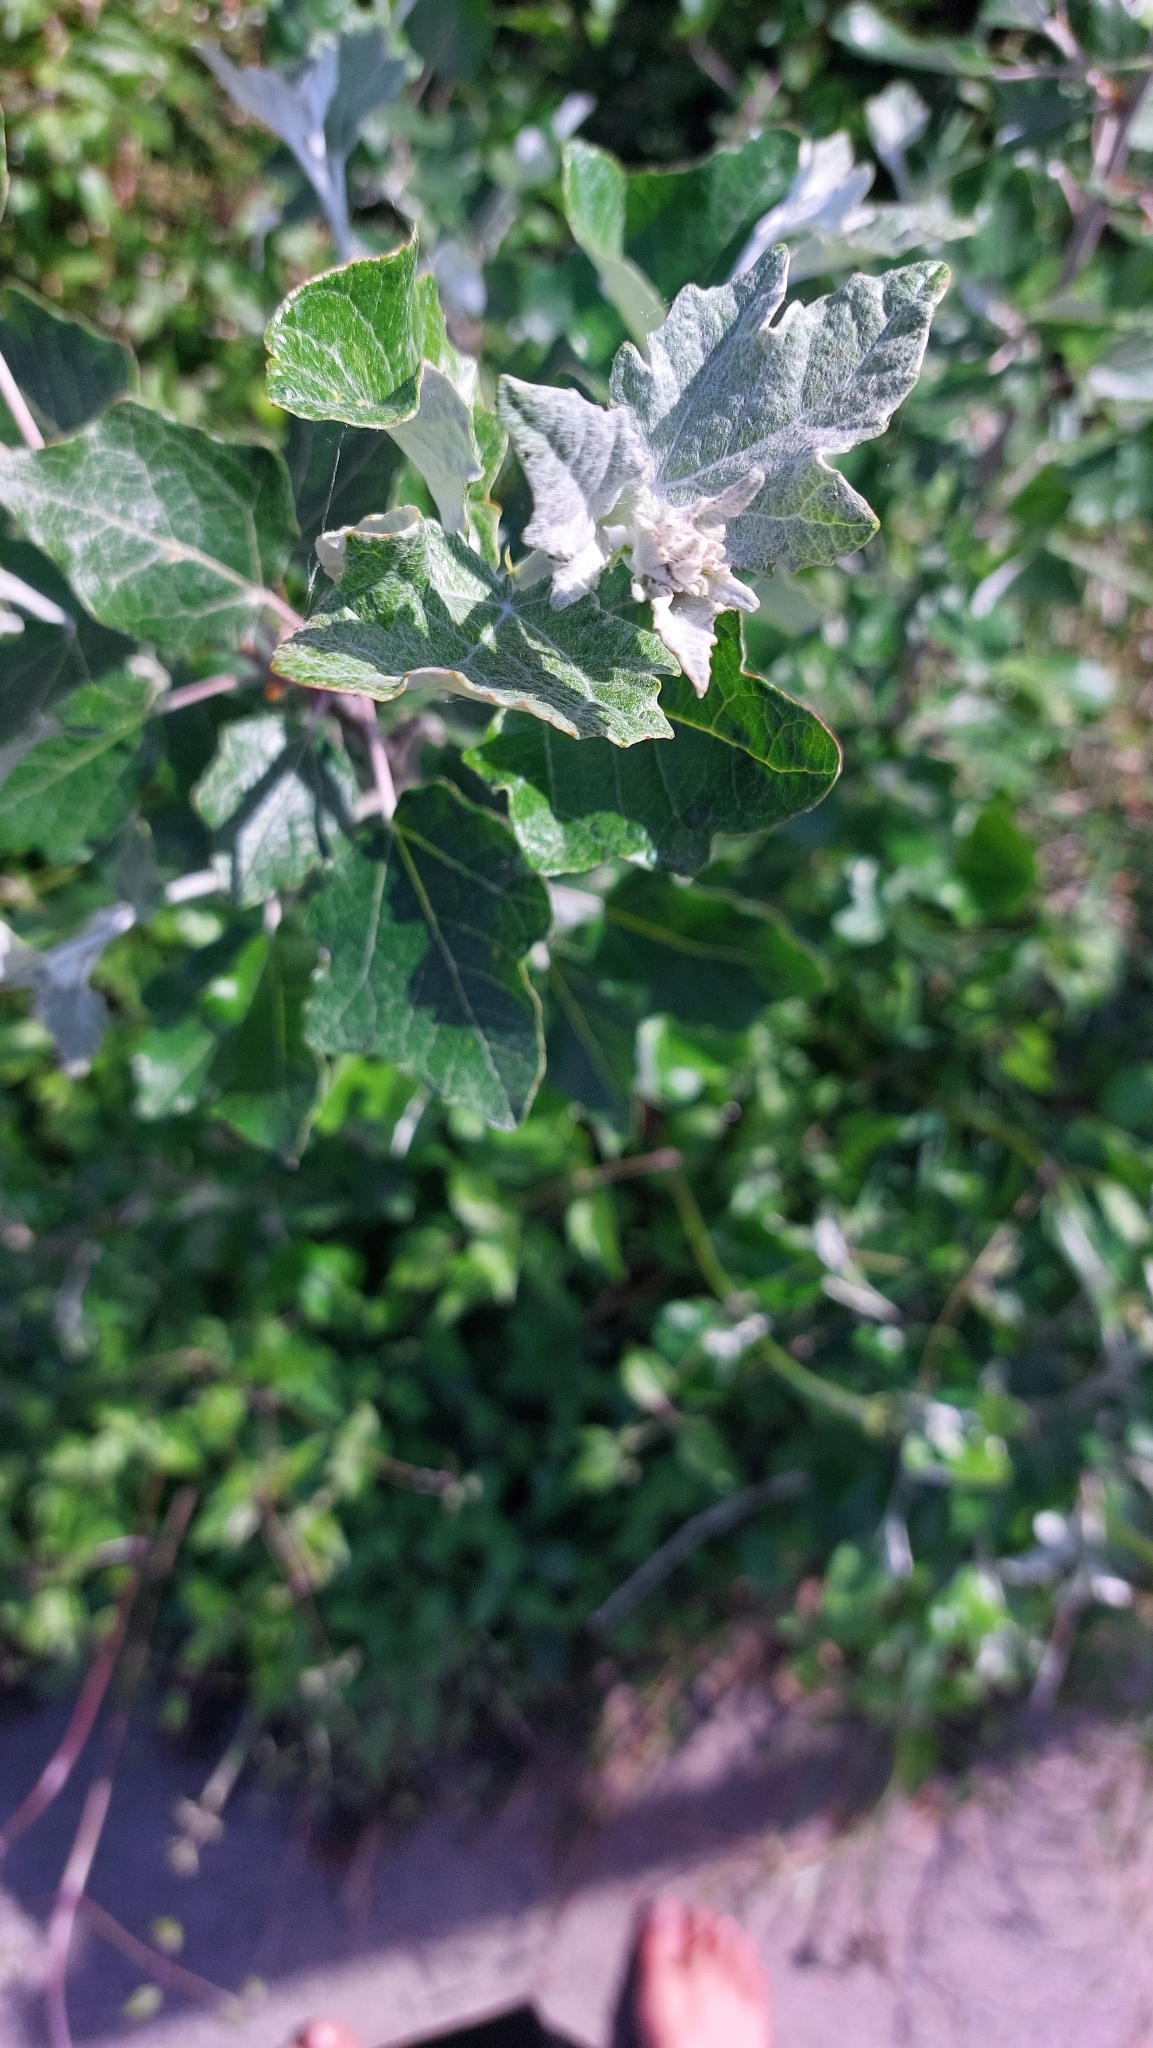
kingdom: Plantae
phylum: Tracheophyta
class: Magnoliopsida
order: Malpighiales
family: Salicaceae
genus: Populus
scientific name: Populus alba
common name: White poplar
